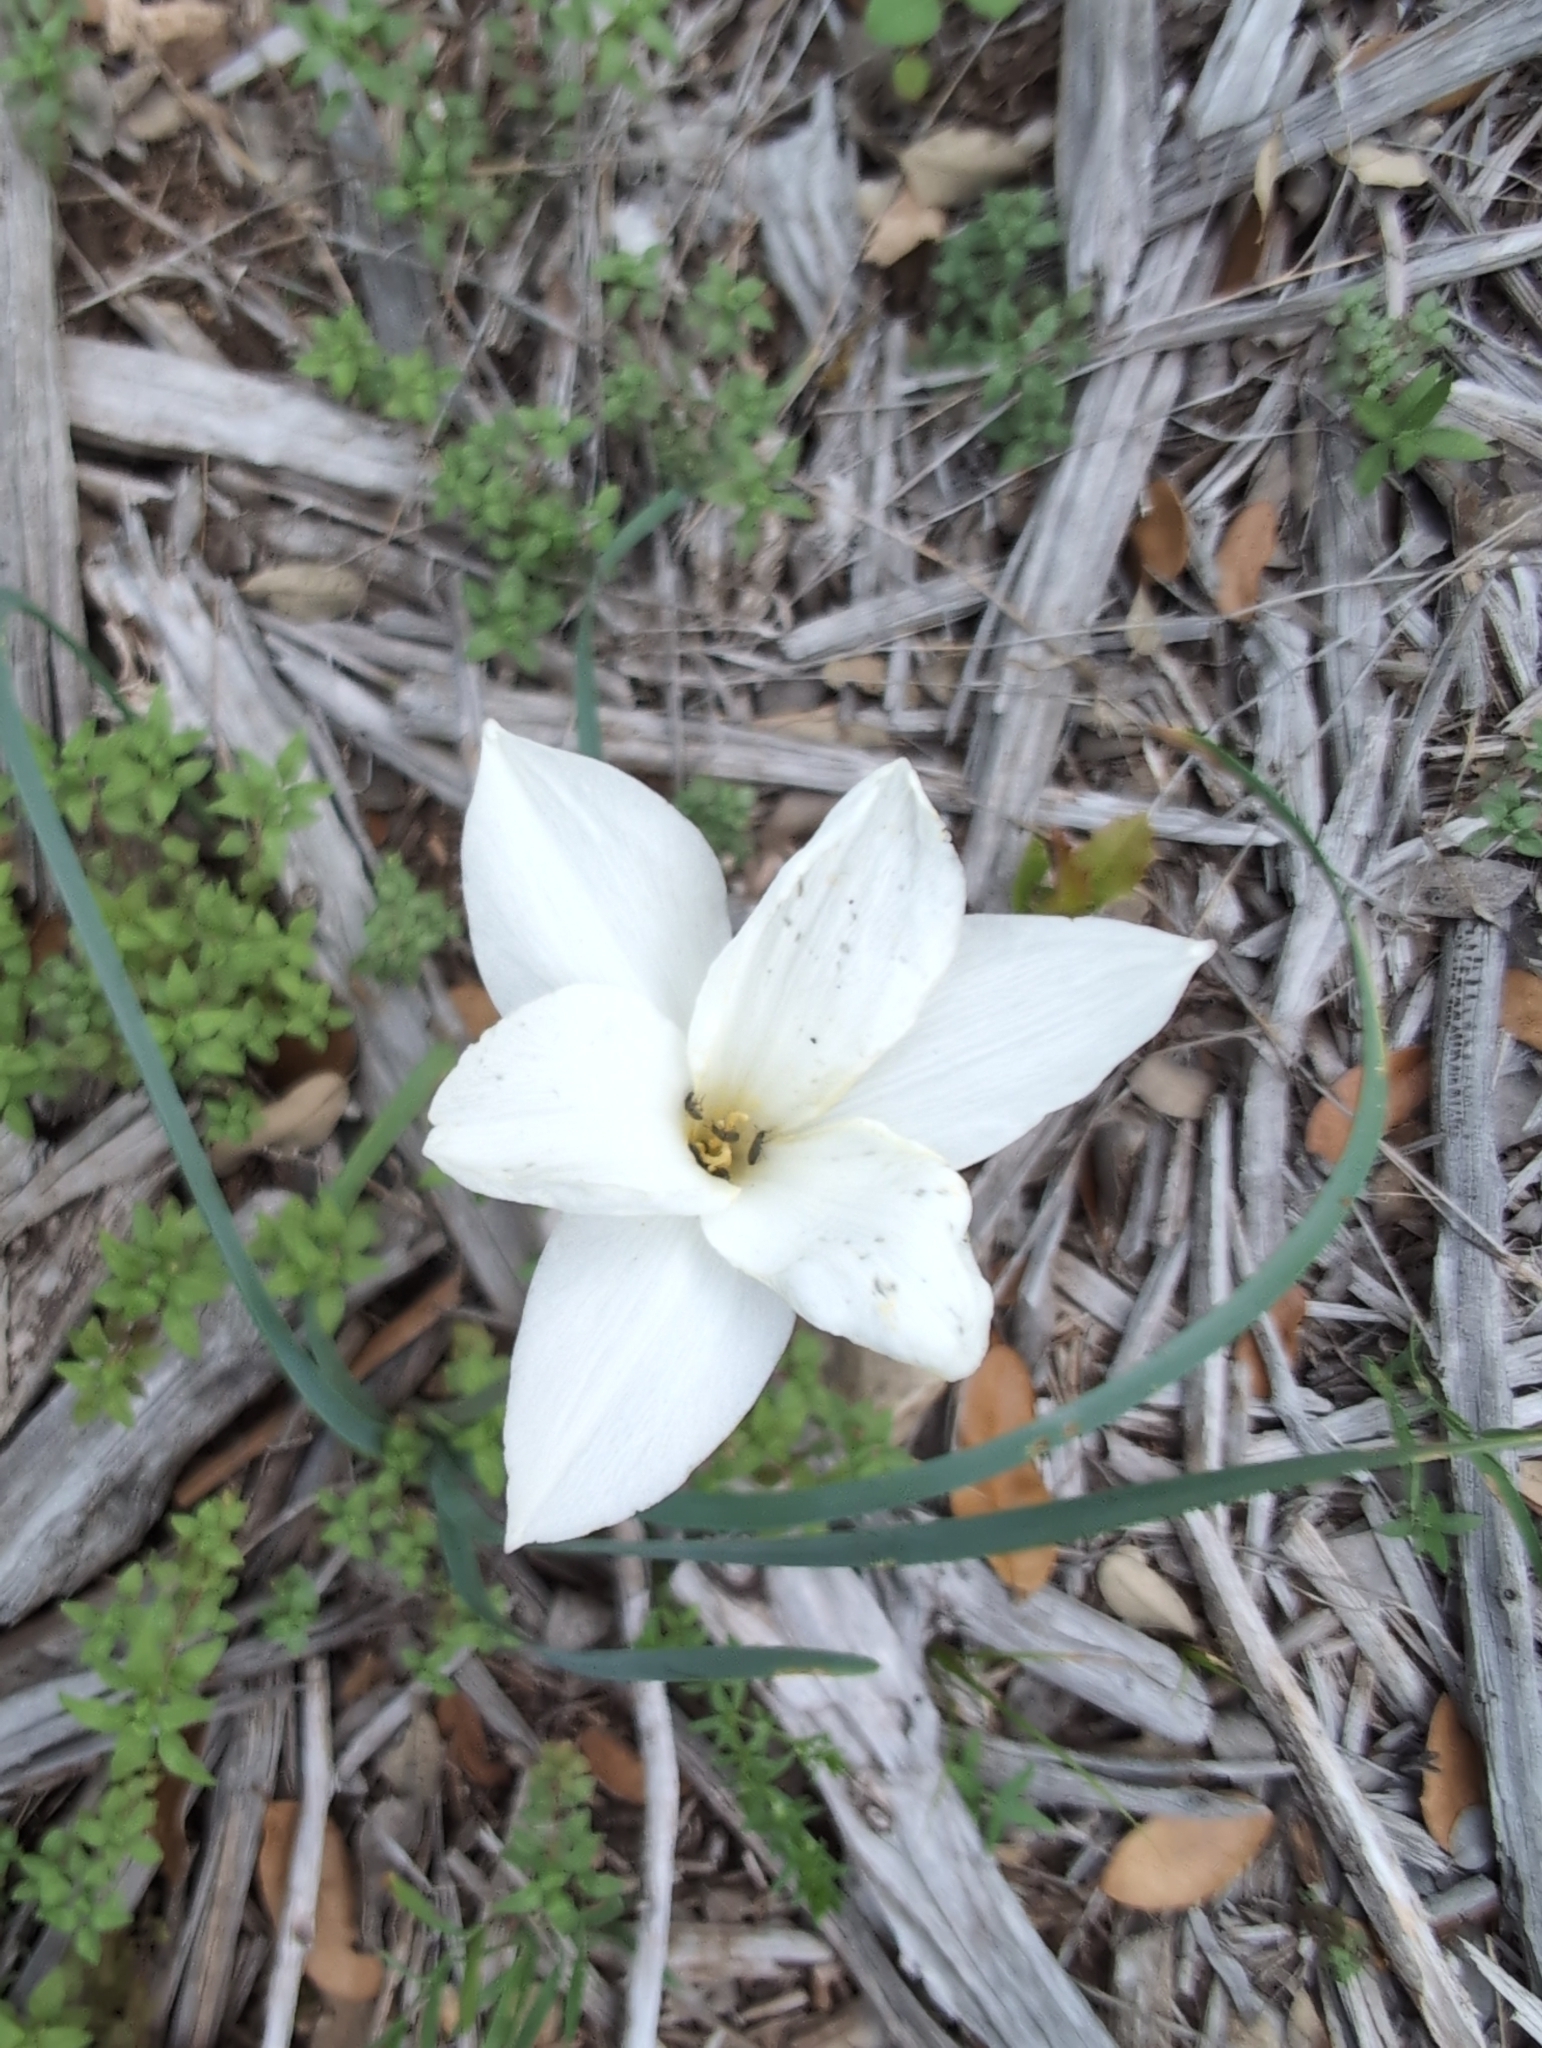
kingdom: Plantae
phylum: Tracheophyta
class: Liliopsida
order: Asparagales
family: Amaryllidaceae
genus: Zephyranthes
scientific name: Zephyranthes drummondii
